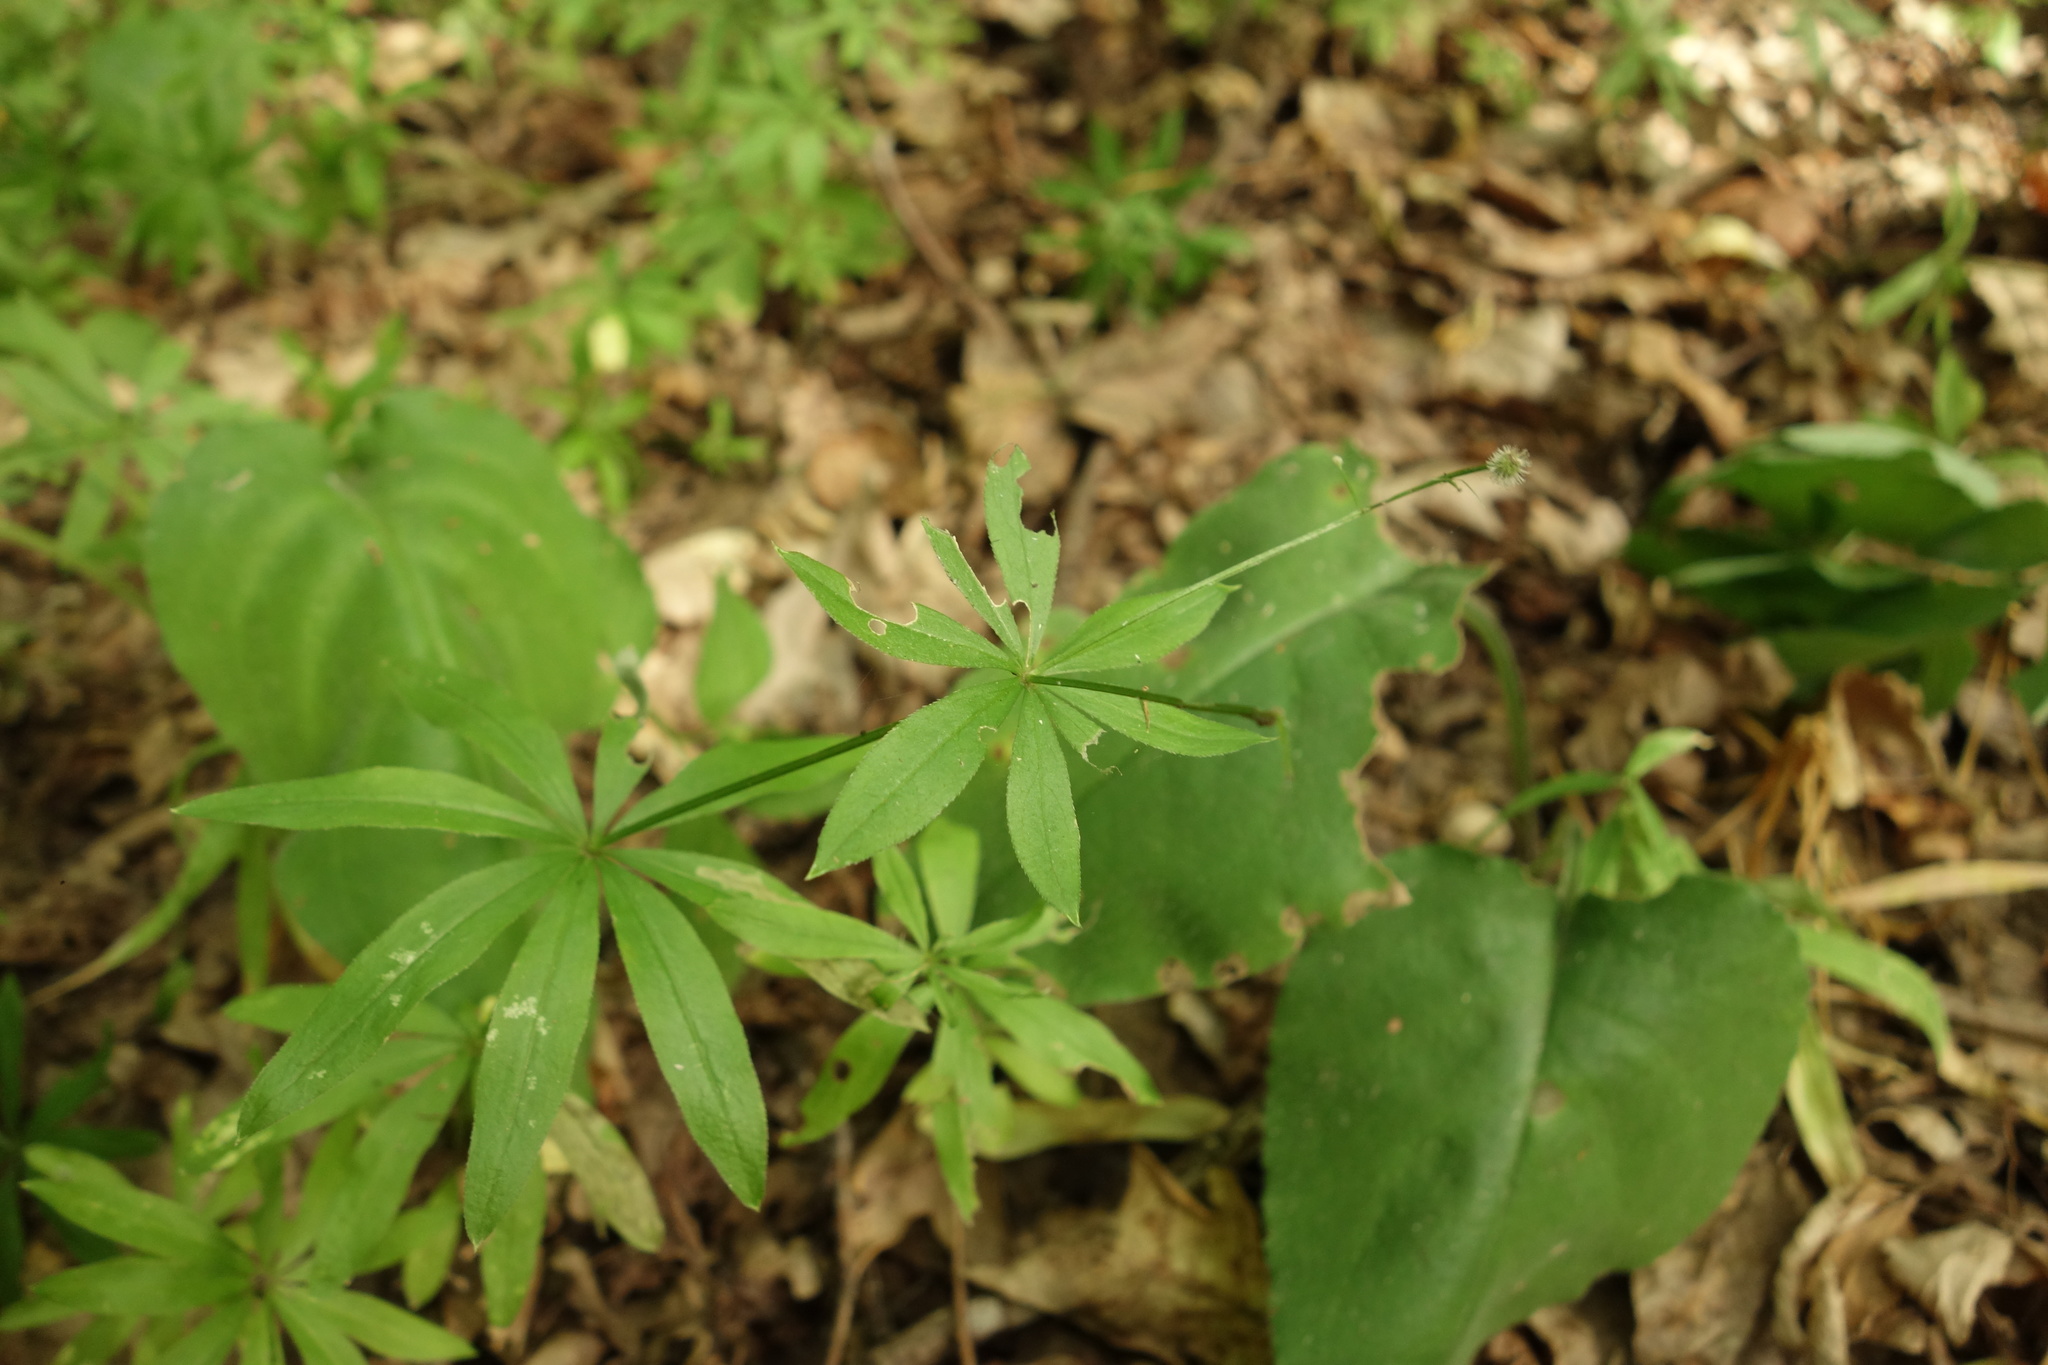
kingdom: Plantae
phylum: Tracheophyta
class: Magnoliopsida
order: Gentianales
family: Rubiaceae
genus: Galium
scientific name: Galium odoratum
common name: Sweet woodruff
